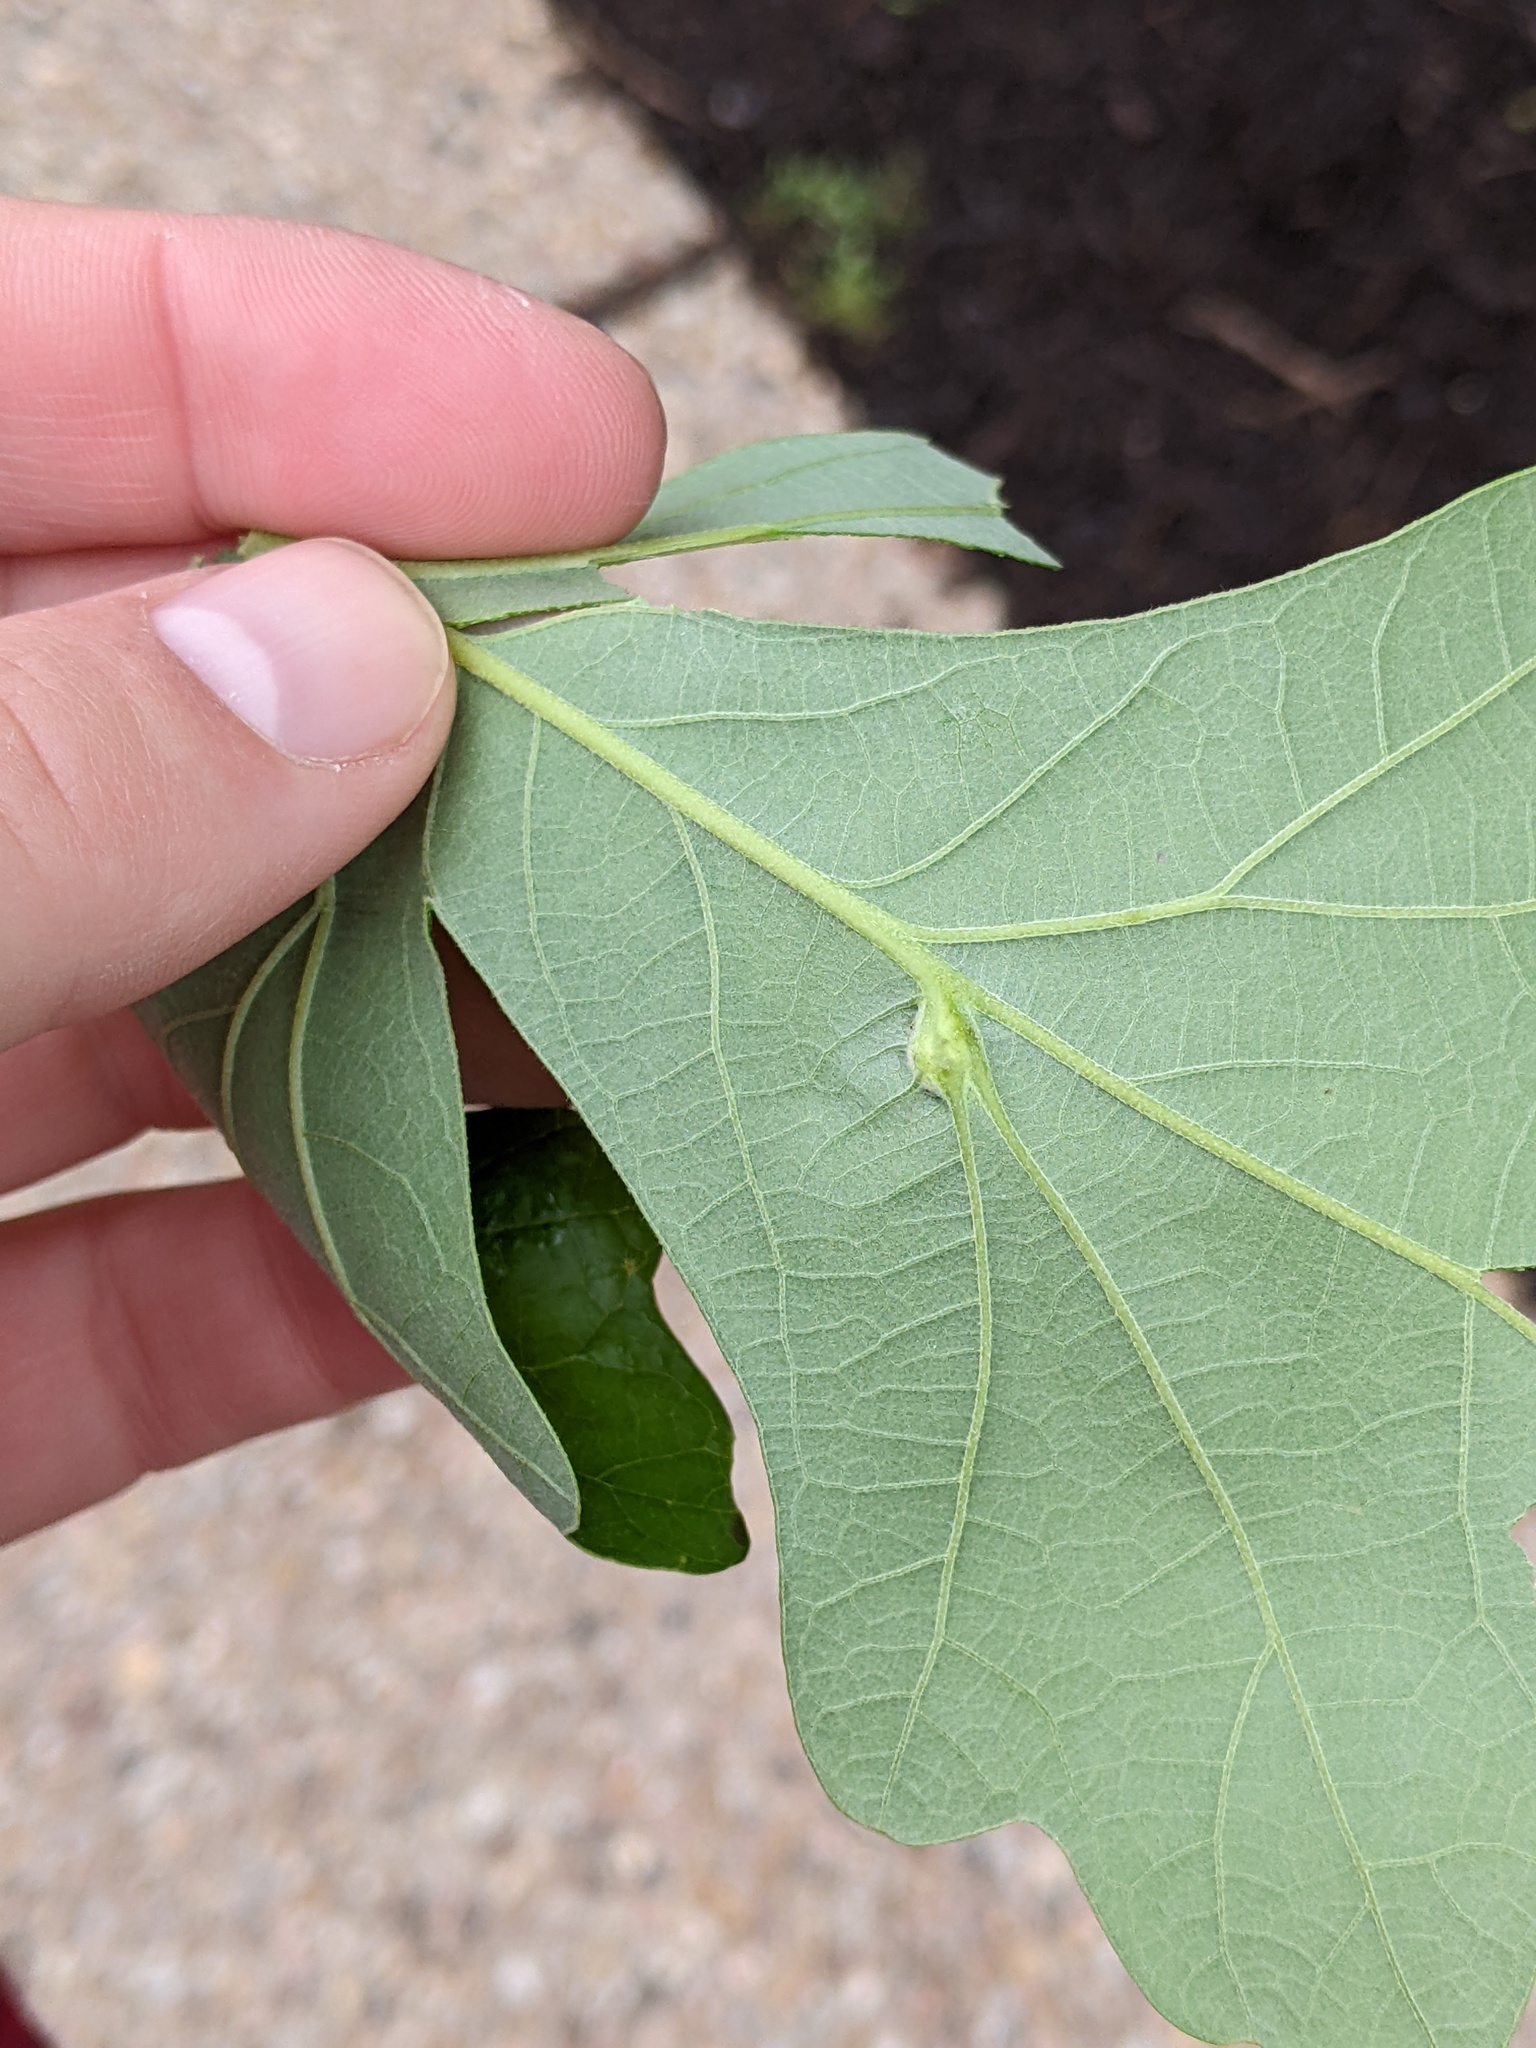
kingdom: Animalia
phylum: Arthropoda
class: Insecta
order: Hymenoptera
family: Cynipidae
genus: Bassettia
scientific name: Bassettia flavipes
